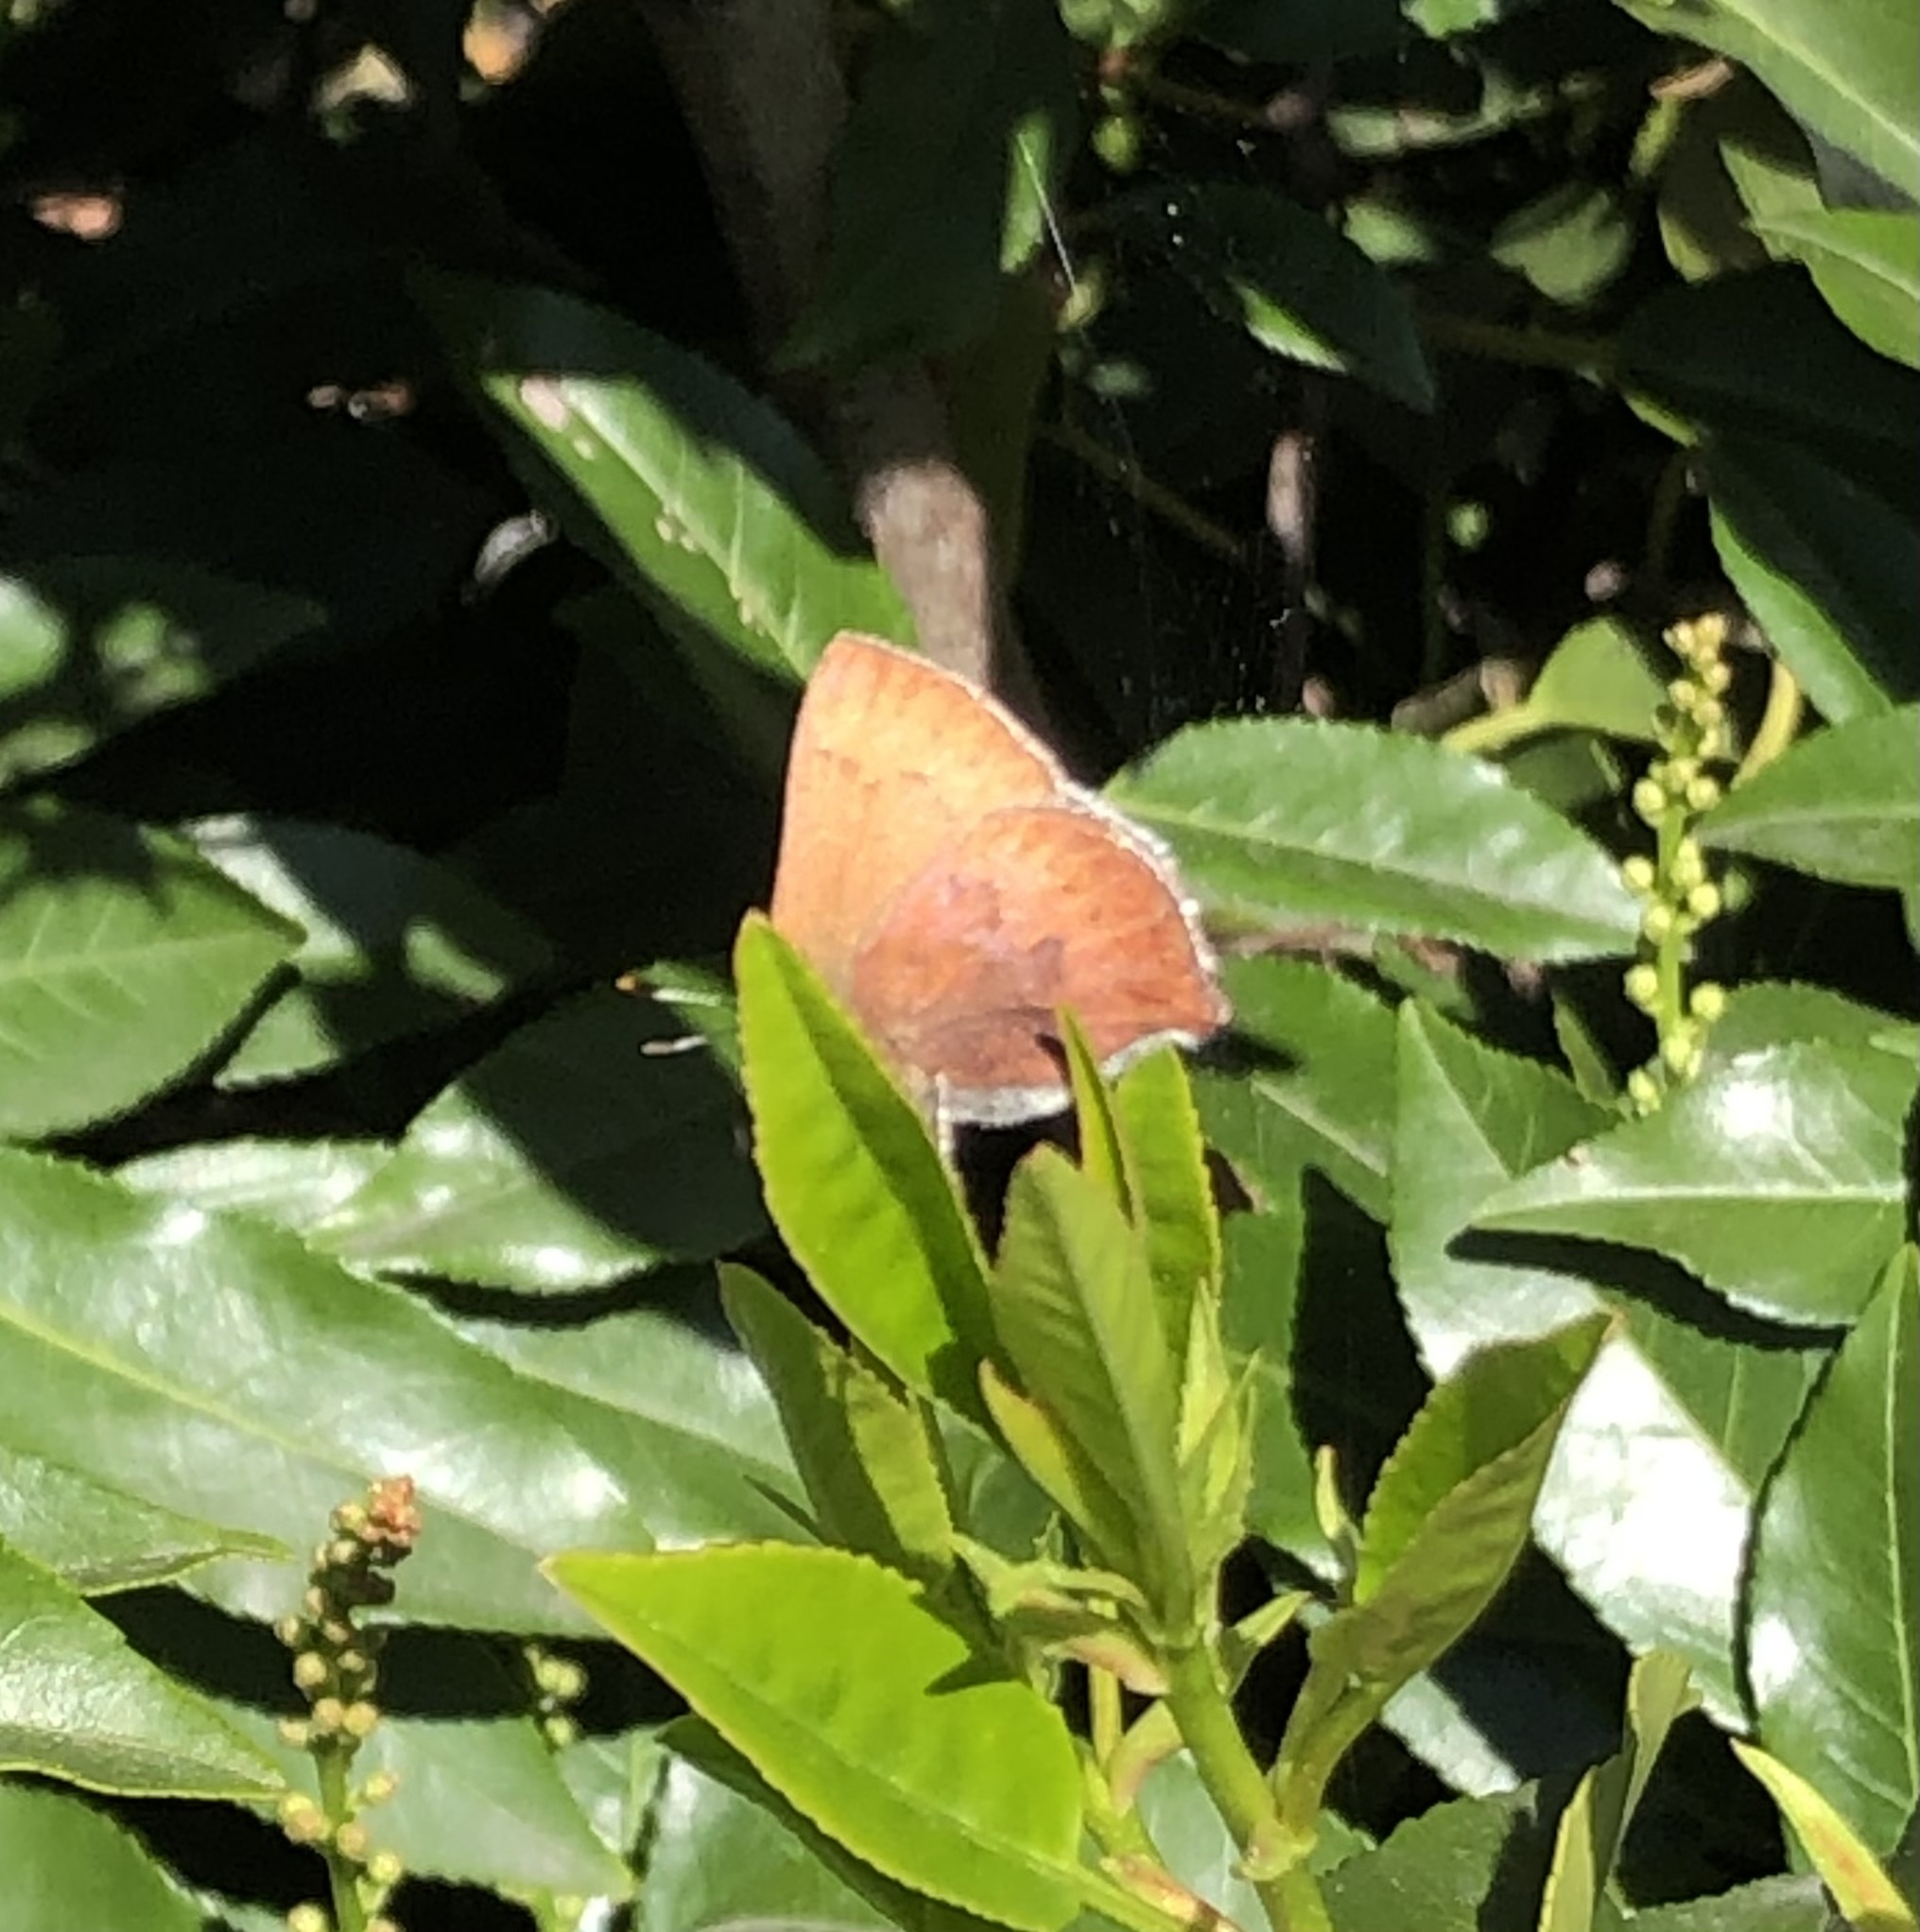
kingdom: Animalia
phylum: Arthropoda
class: Insecta
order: Lepidoptera
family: Lycaenidae
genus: Incisalia
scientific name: Incisalia irioides
